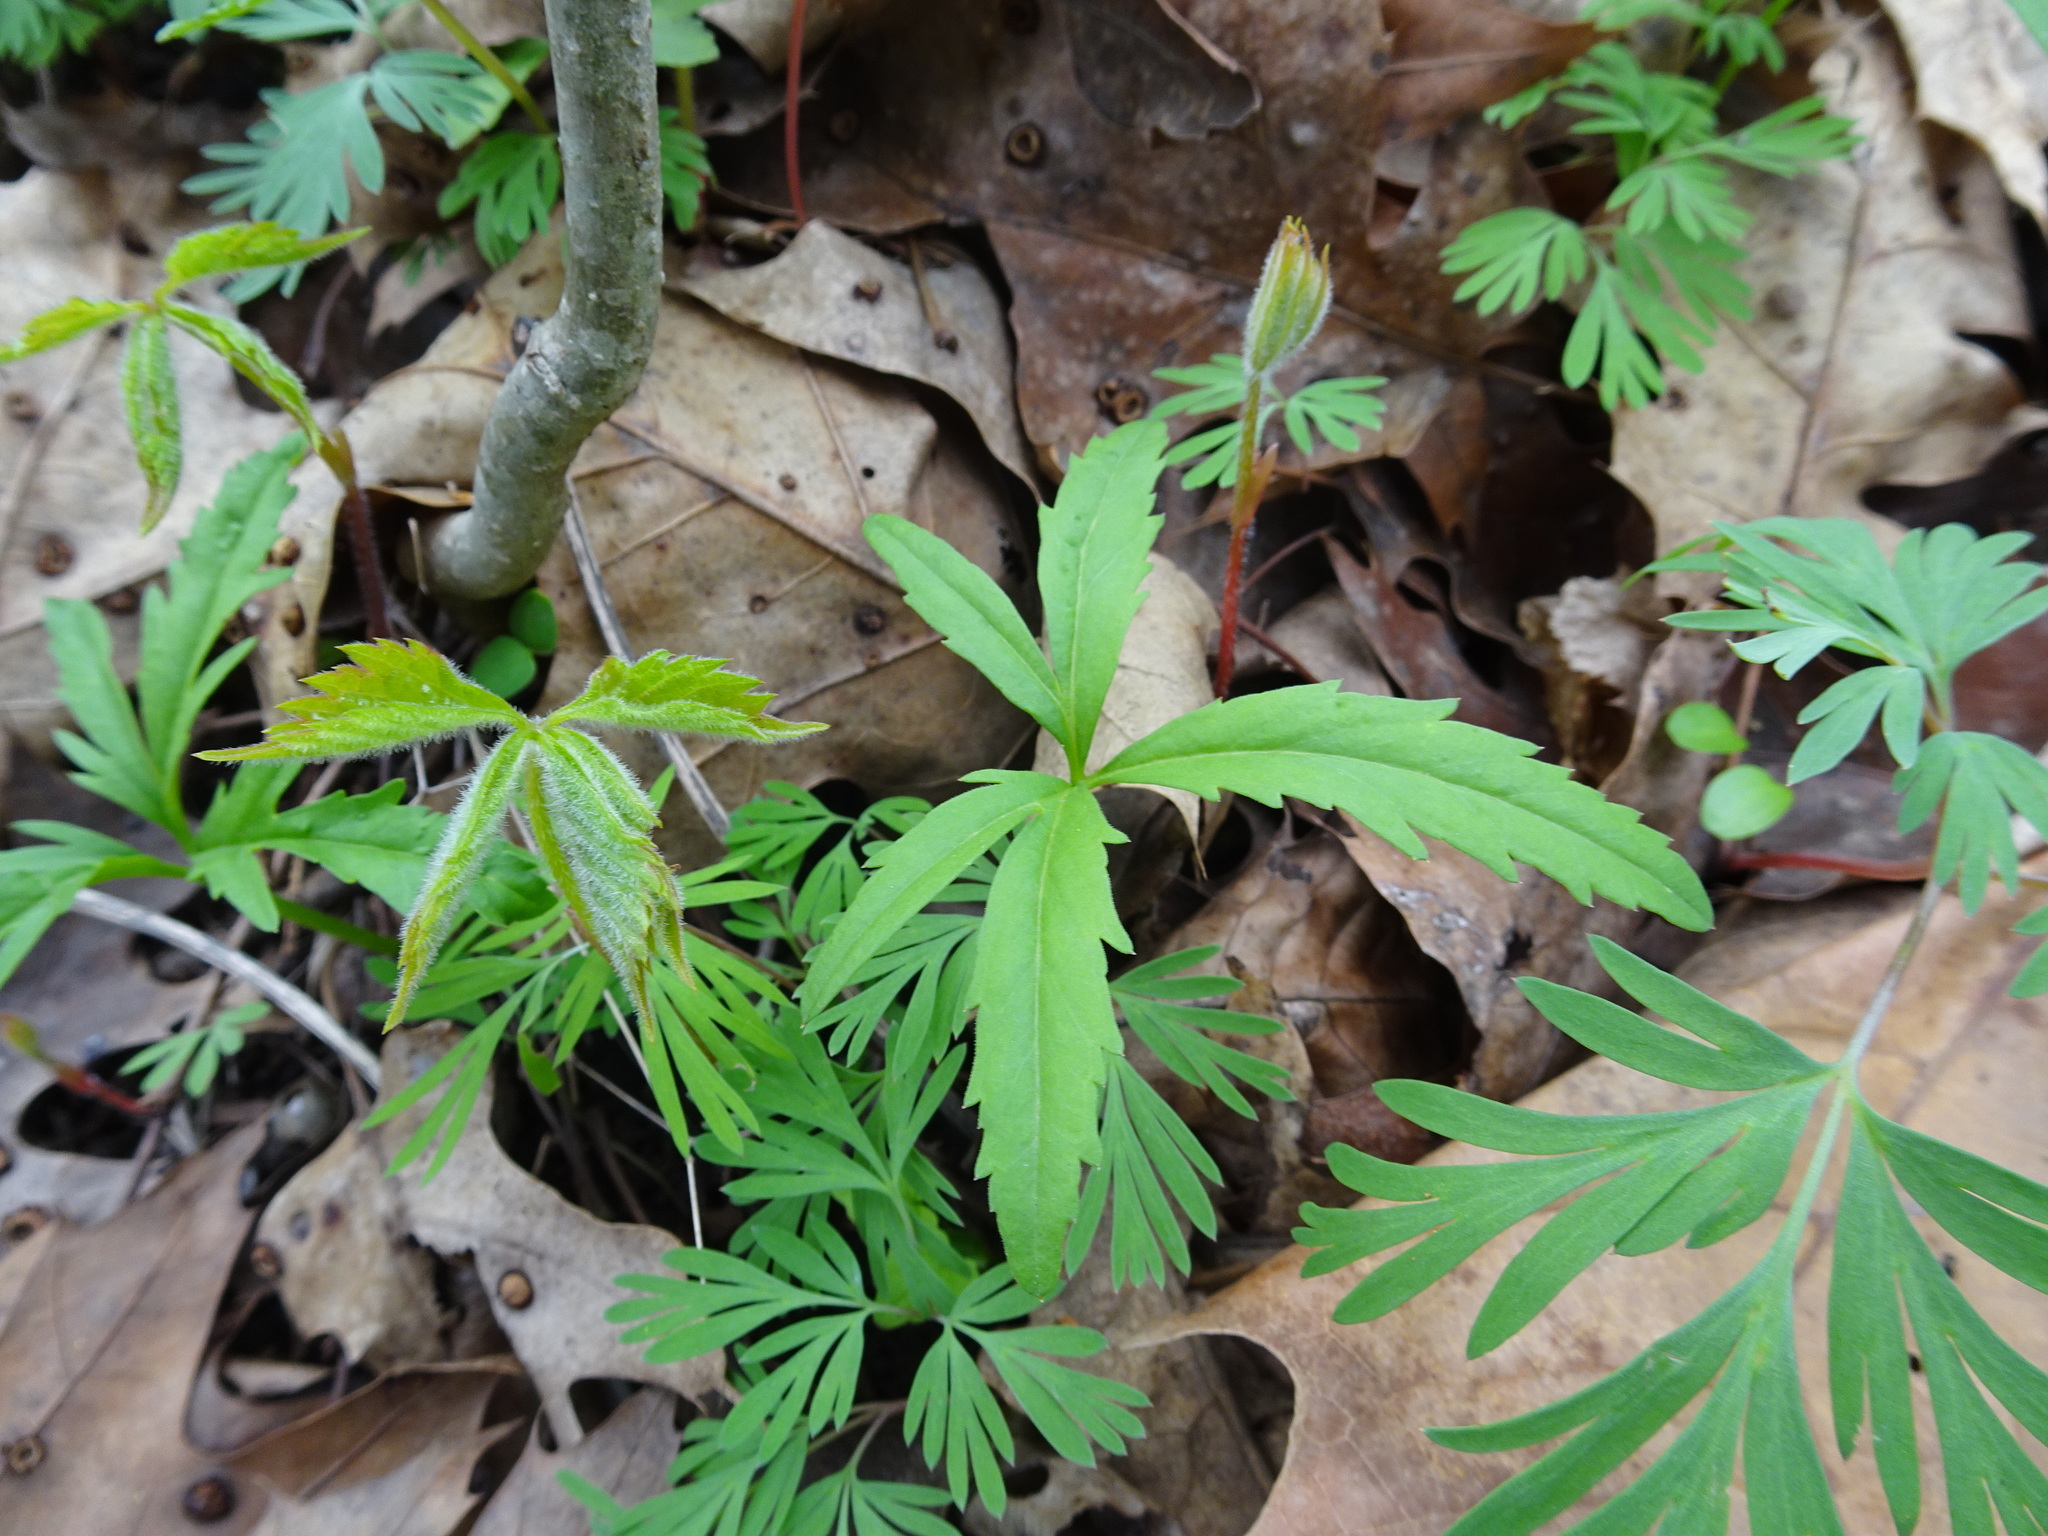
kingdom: Plantae
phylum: Tracheophyta
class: Magnoliopsida
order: Brassicales
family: Brassicaceae
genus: Cardamine
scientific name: Cardamine concatenata
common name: Cut-leaf toothcup
